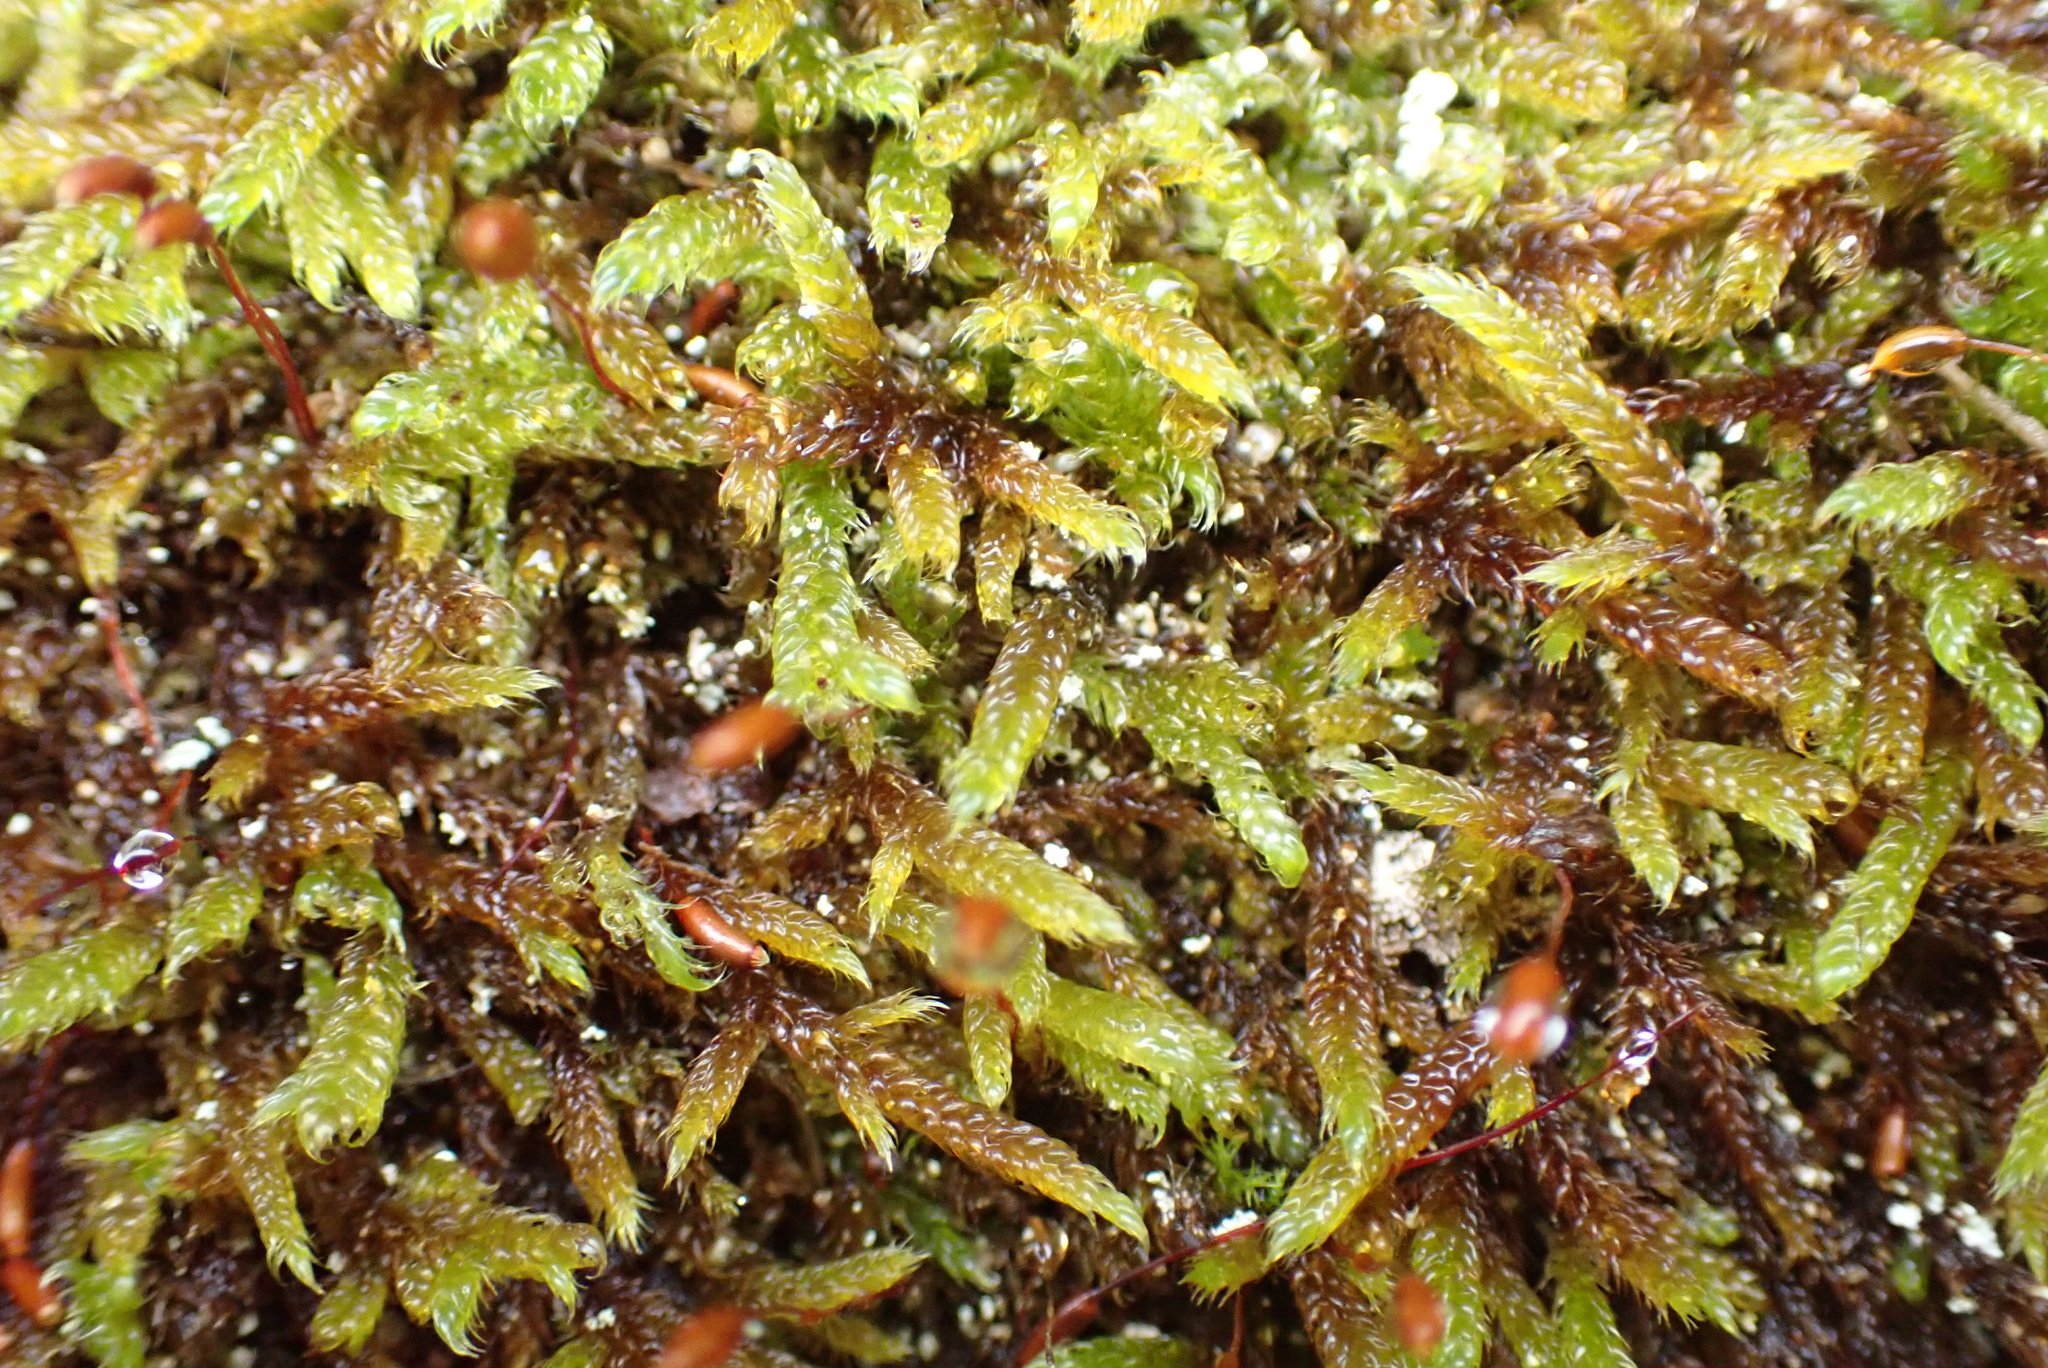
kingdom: Plantae
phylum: Bryophyta
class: Bryopsida
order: Hypnales
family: Hypnaceae
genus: Hypnum
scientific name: Hypnum cupressiforme
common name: Cypress-leaved plait-moss
